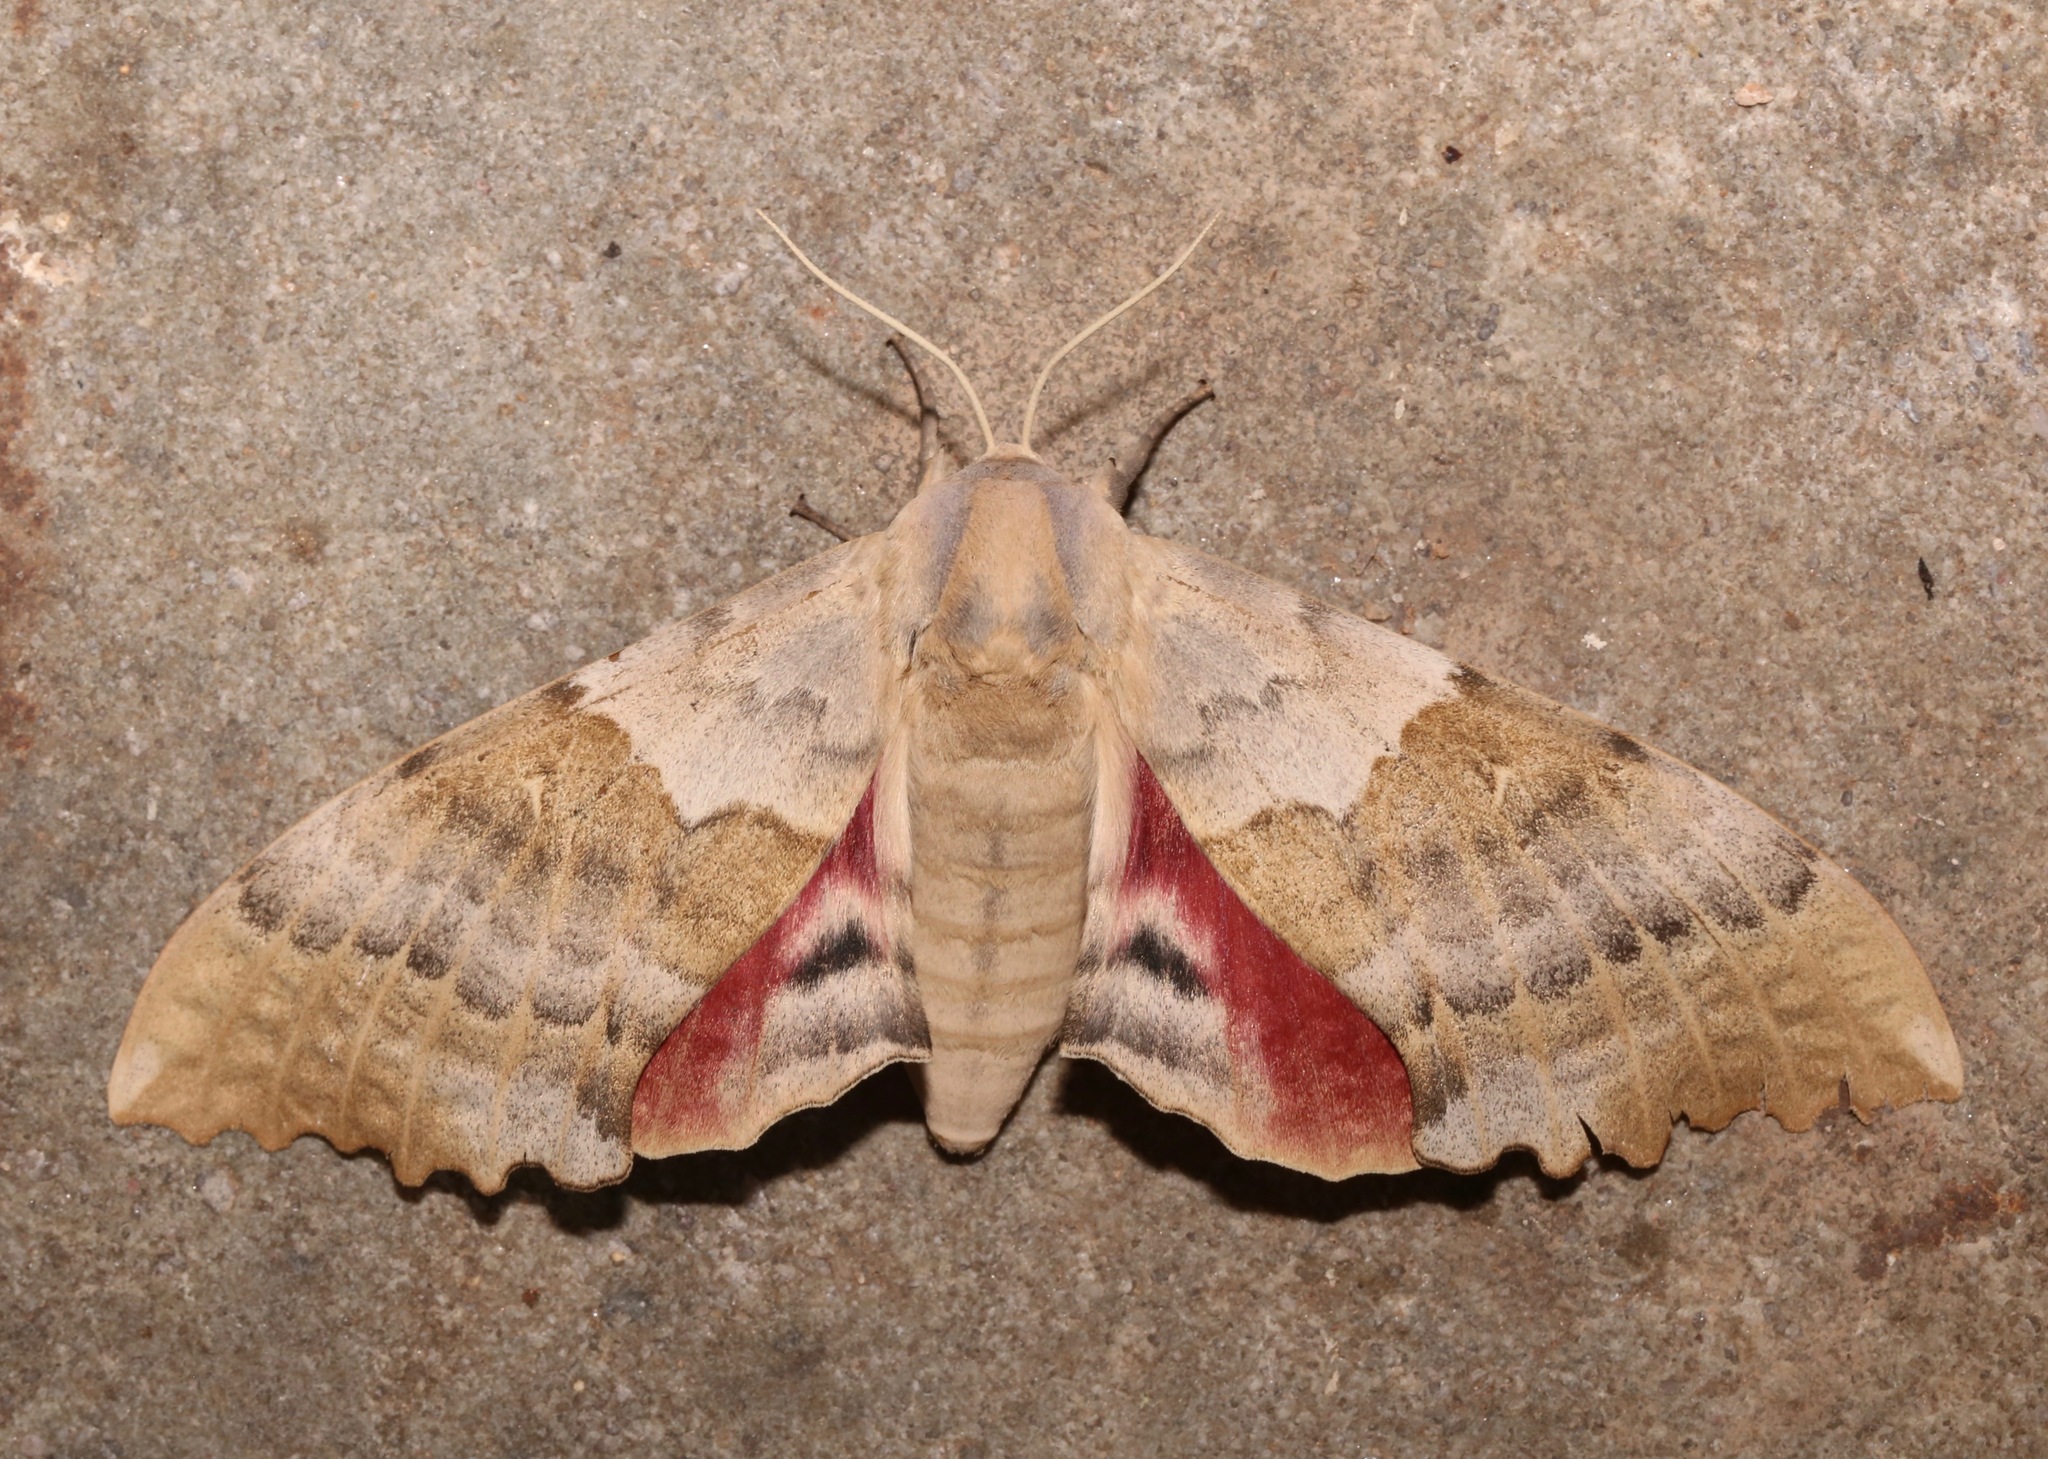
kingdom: Animalia
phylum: Arthropoda
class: Insecta
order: Lepidoptera
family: Sphingidae
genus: Pachysphinx
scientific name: Pachysphinx occidentalis
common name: Western poplar sphinx
